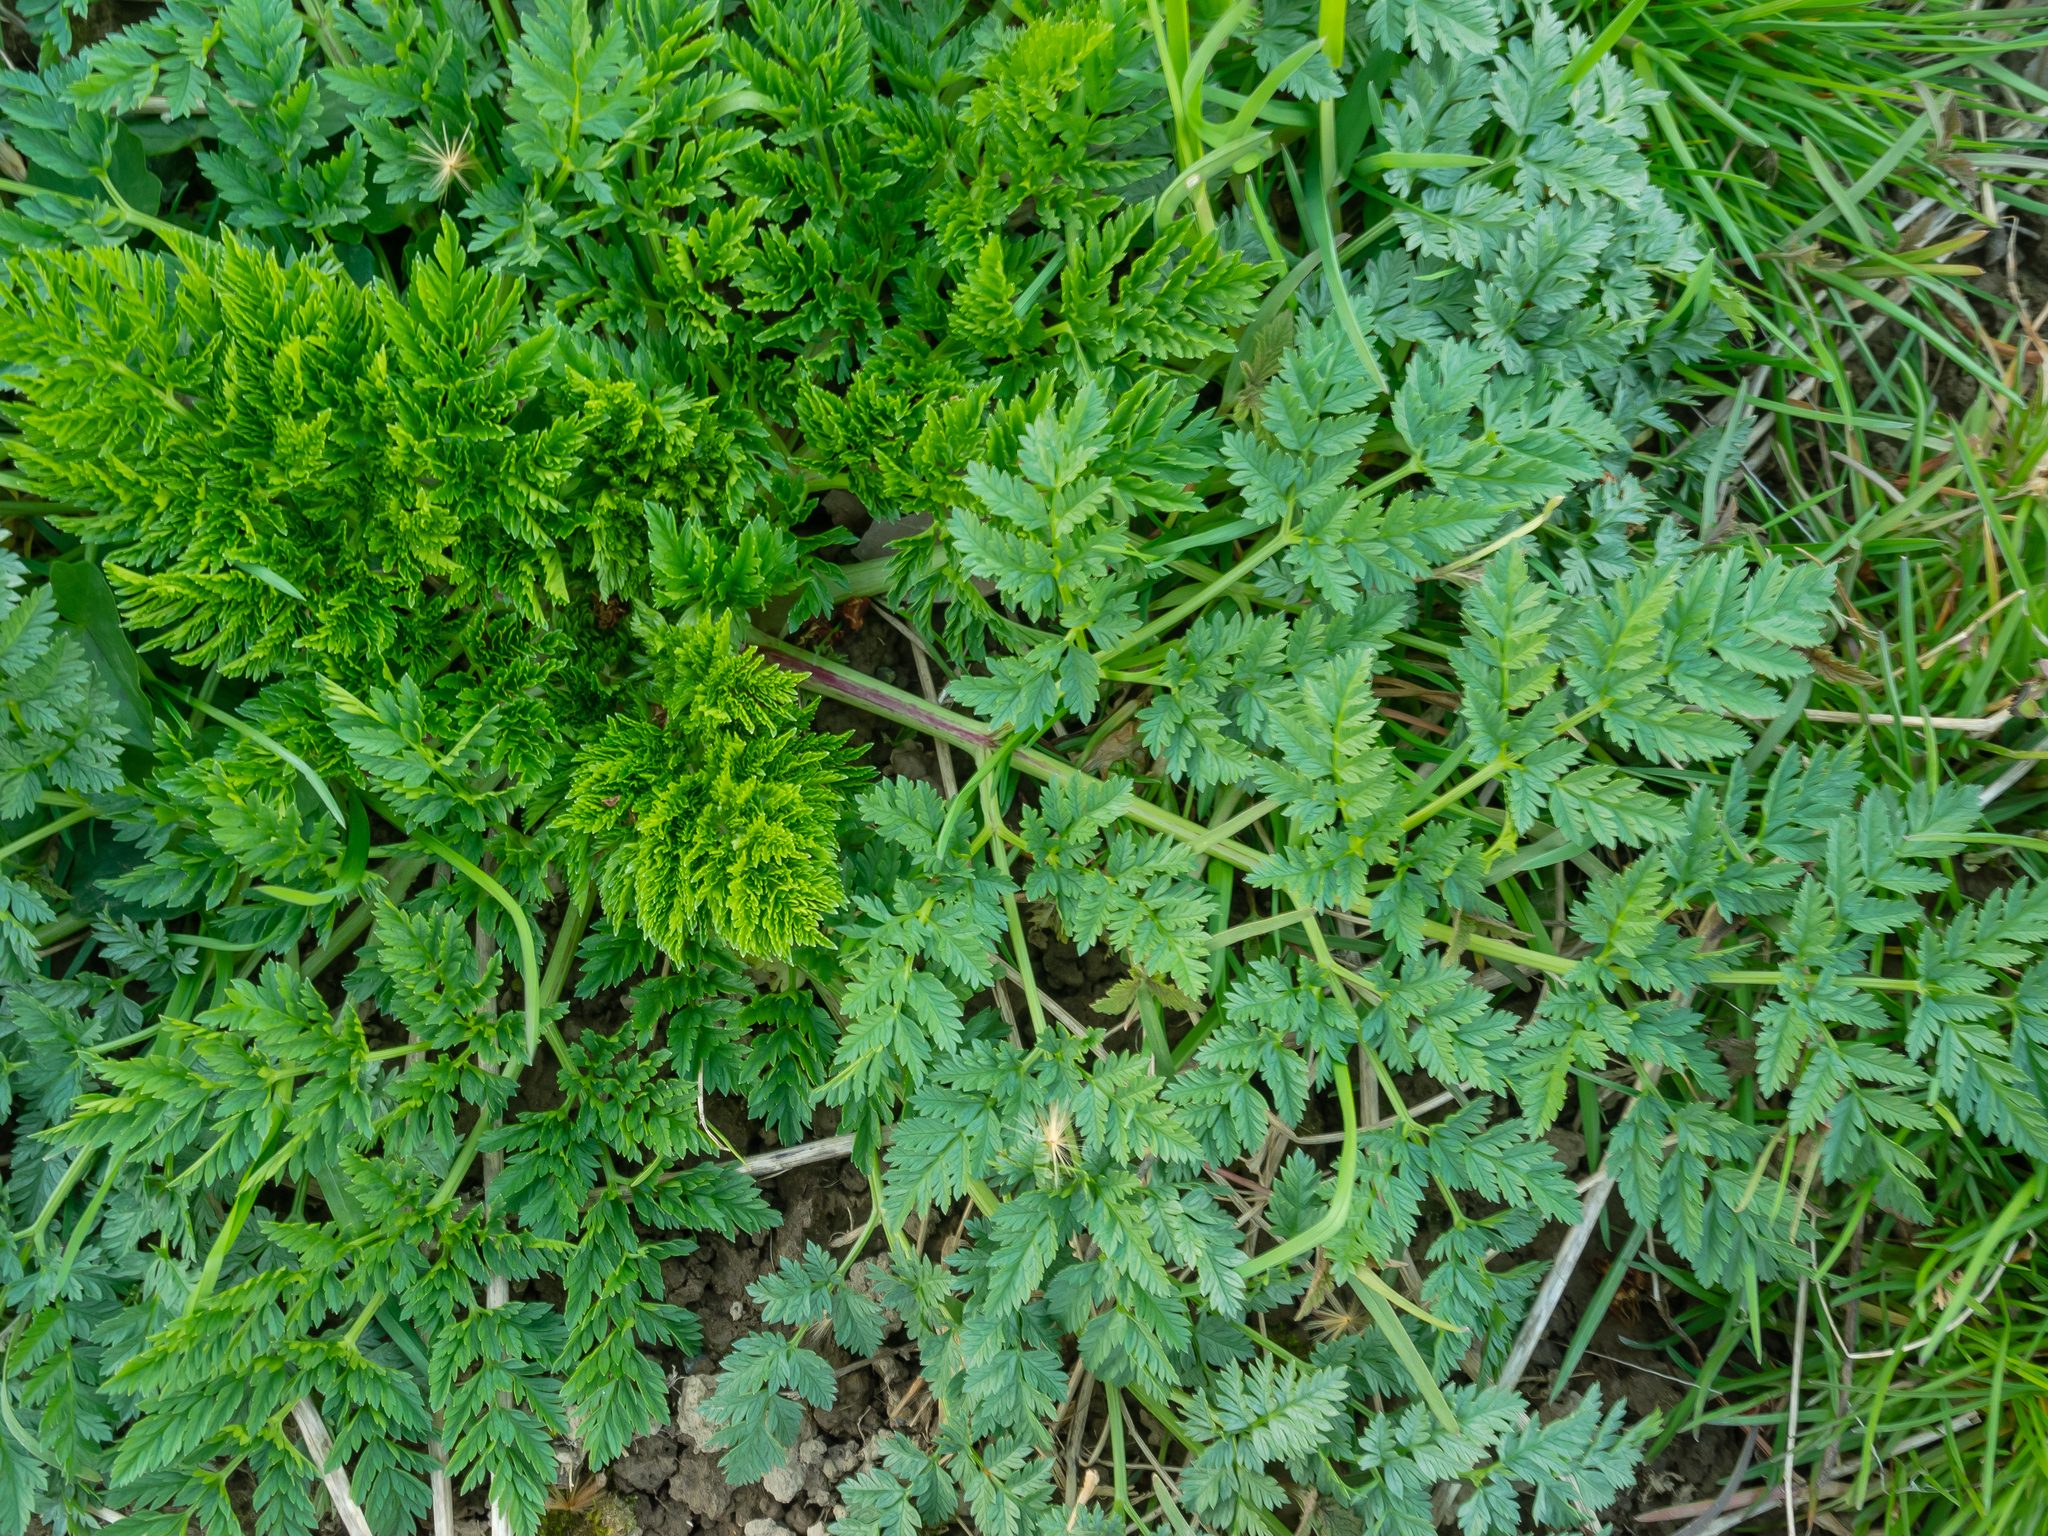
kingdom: Plantae
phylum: Tracheophyta
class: Magnoliopsida
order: Apiales
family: Apiaceae
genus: Conium
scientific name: Conium maculatum
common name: Hemlock
